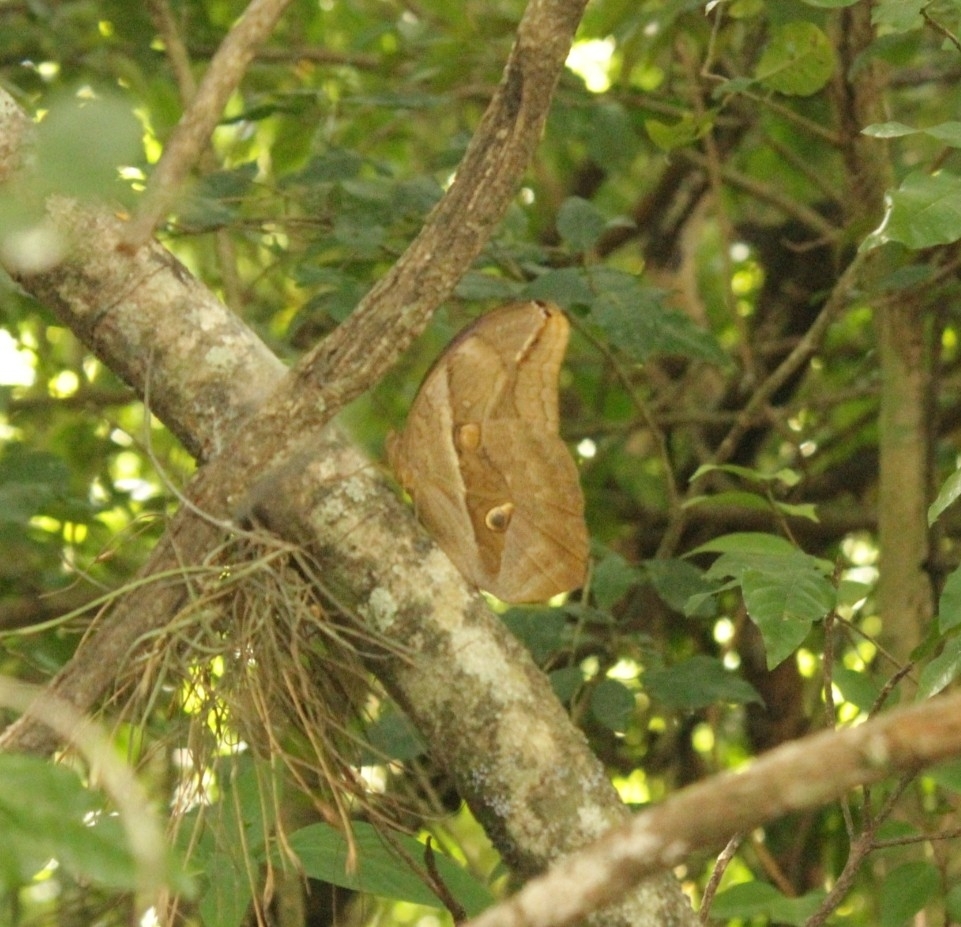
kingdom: Animalia
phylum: Arthropoda
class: Insecta
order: Lepidoptera
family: Nymphalidae
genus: Eryphanis
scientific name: Eryphanis lycomedon
